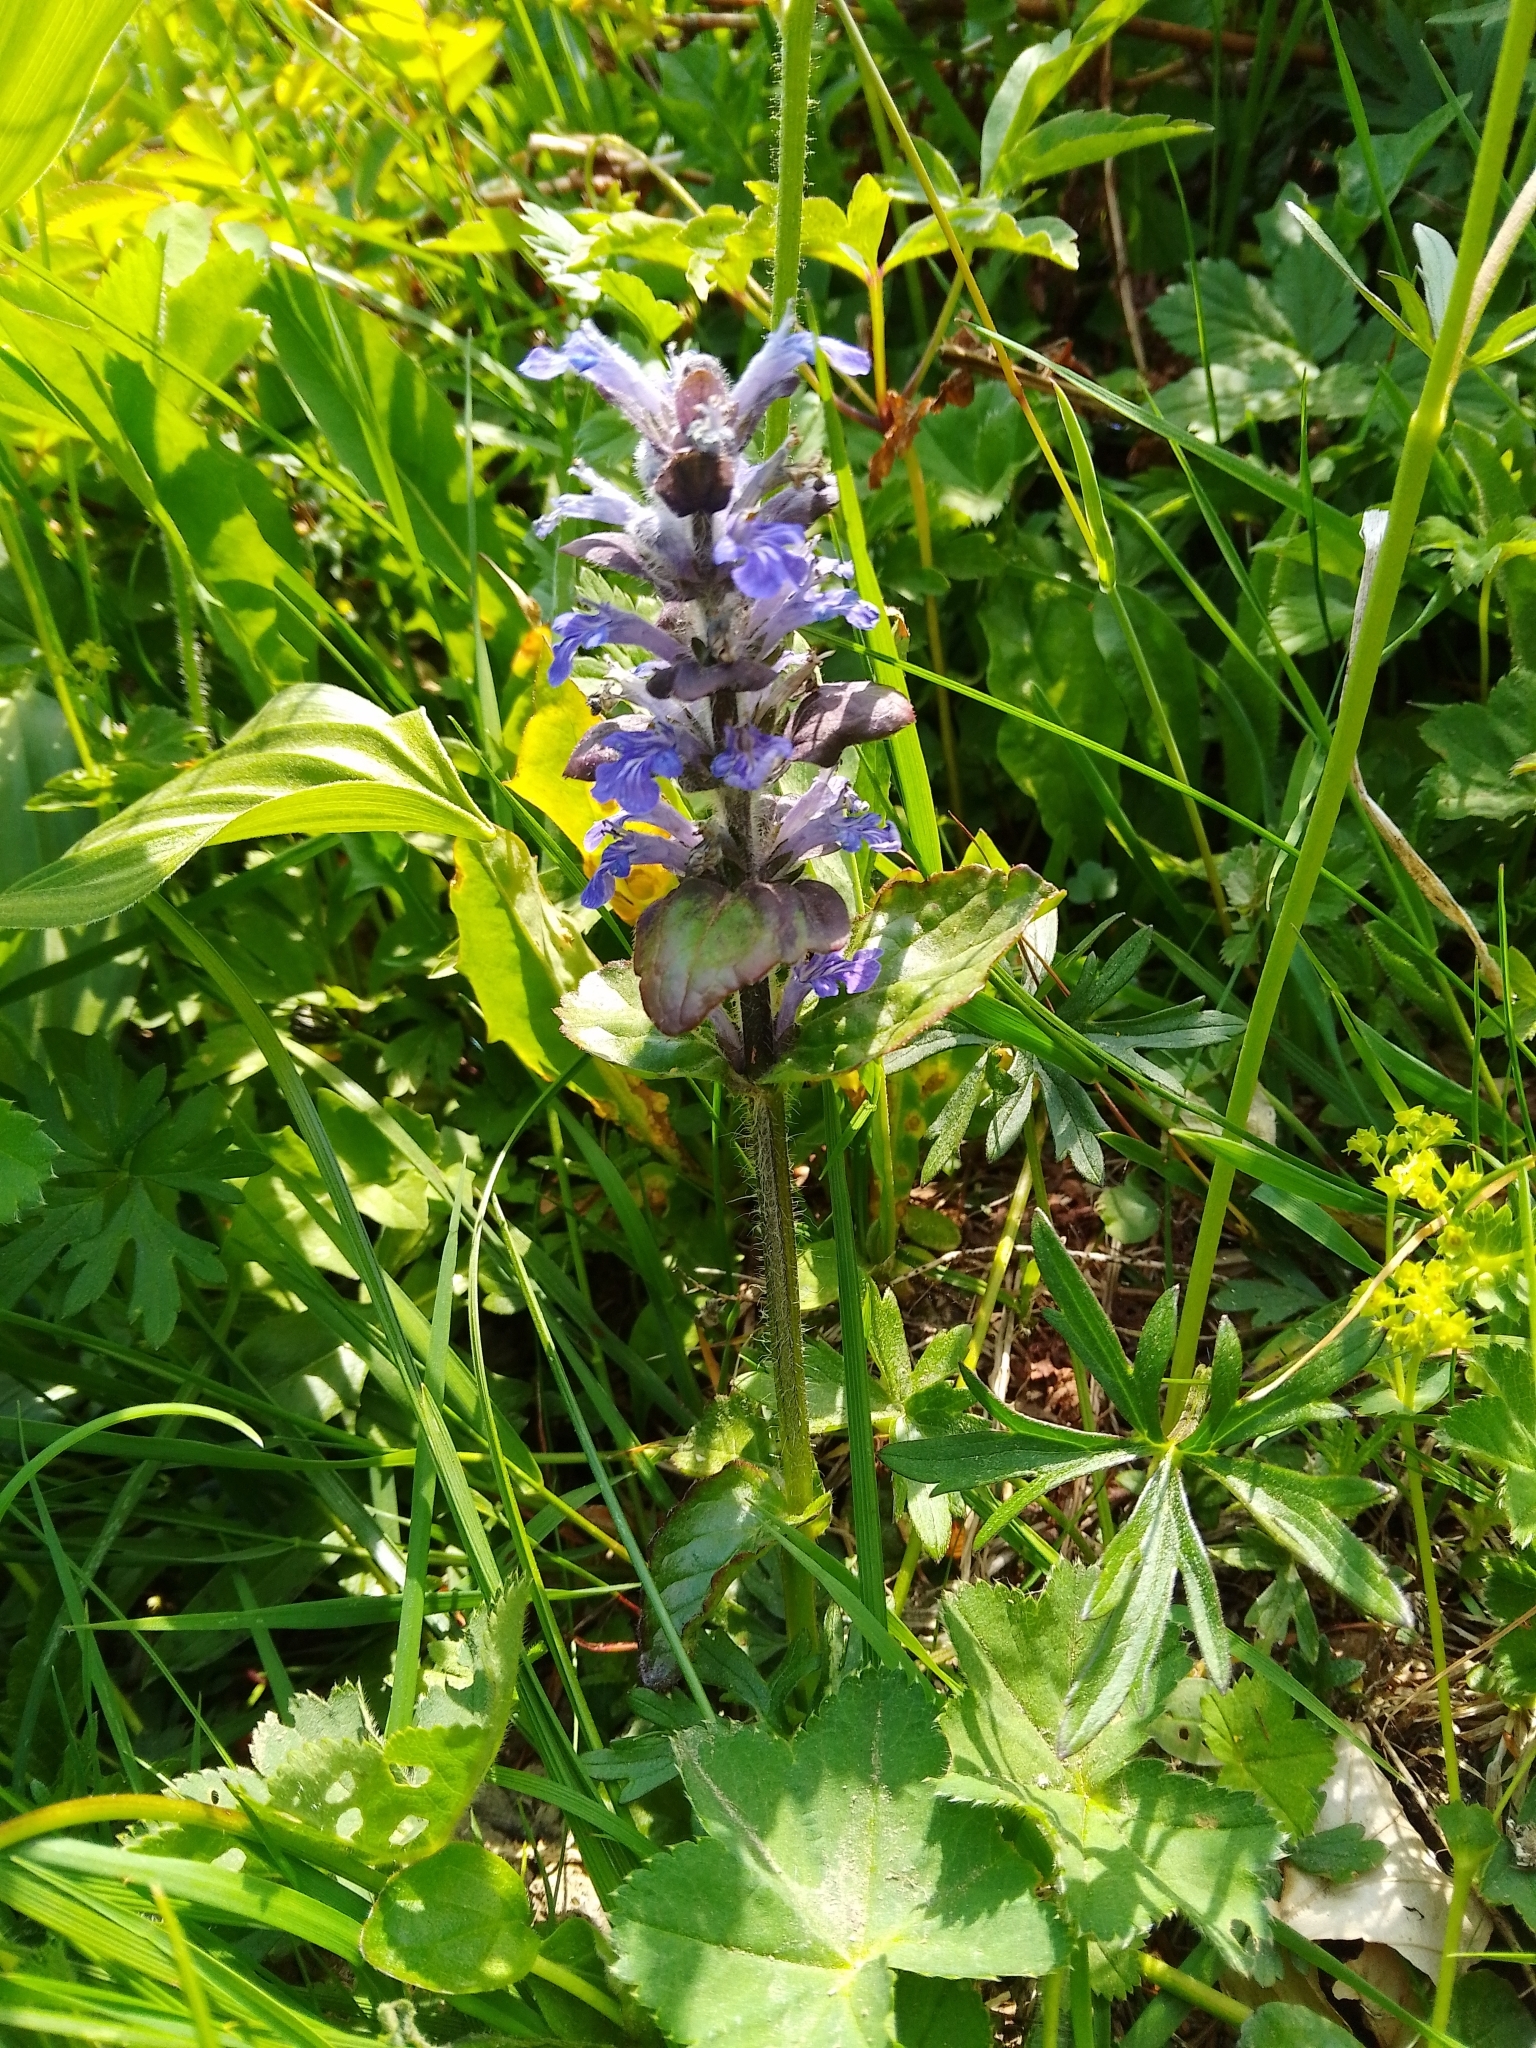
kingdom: Plantae
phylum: Tracheophyta
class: Magnoliopsida
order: Lamiales
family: Lamiaceae
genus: Ajuga
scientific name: Ajuga reptans
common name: Bugle
